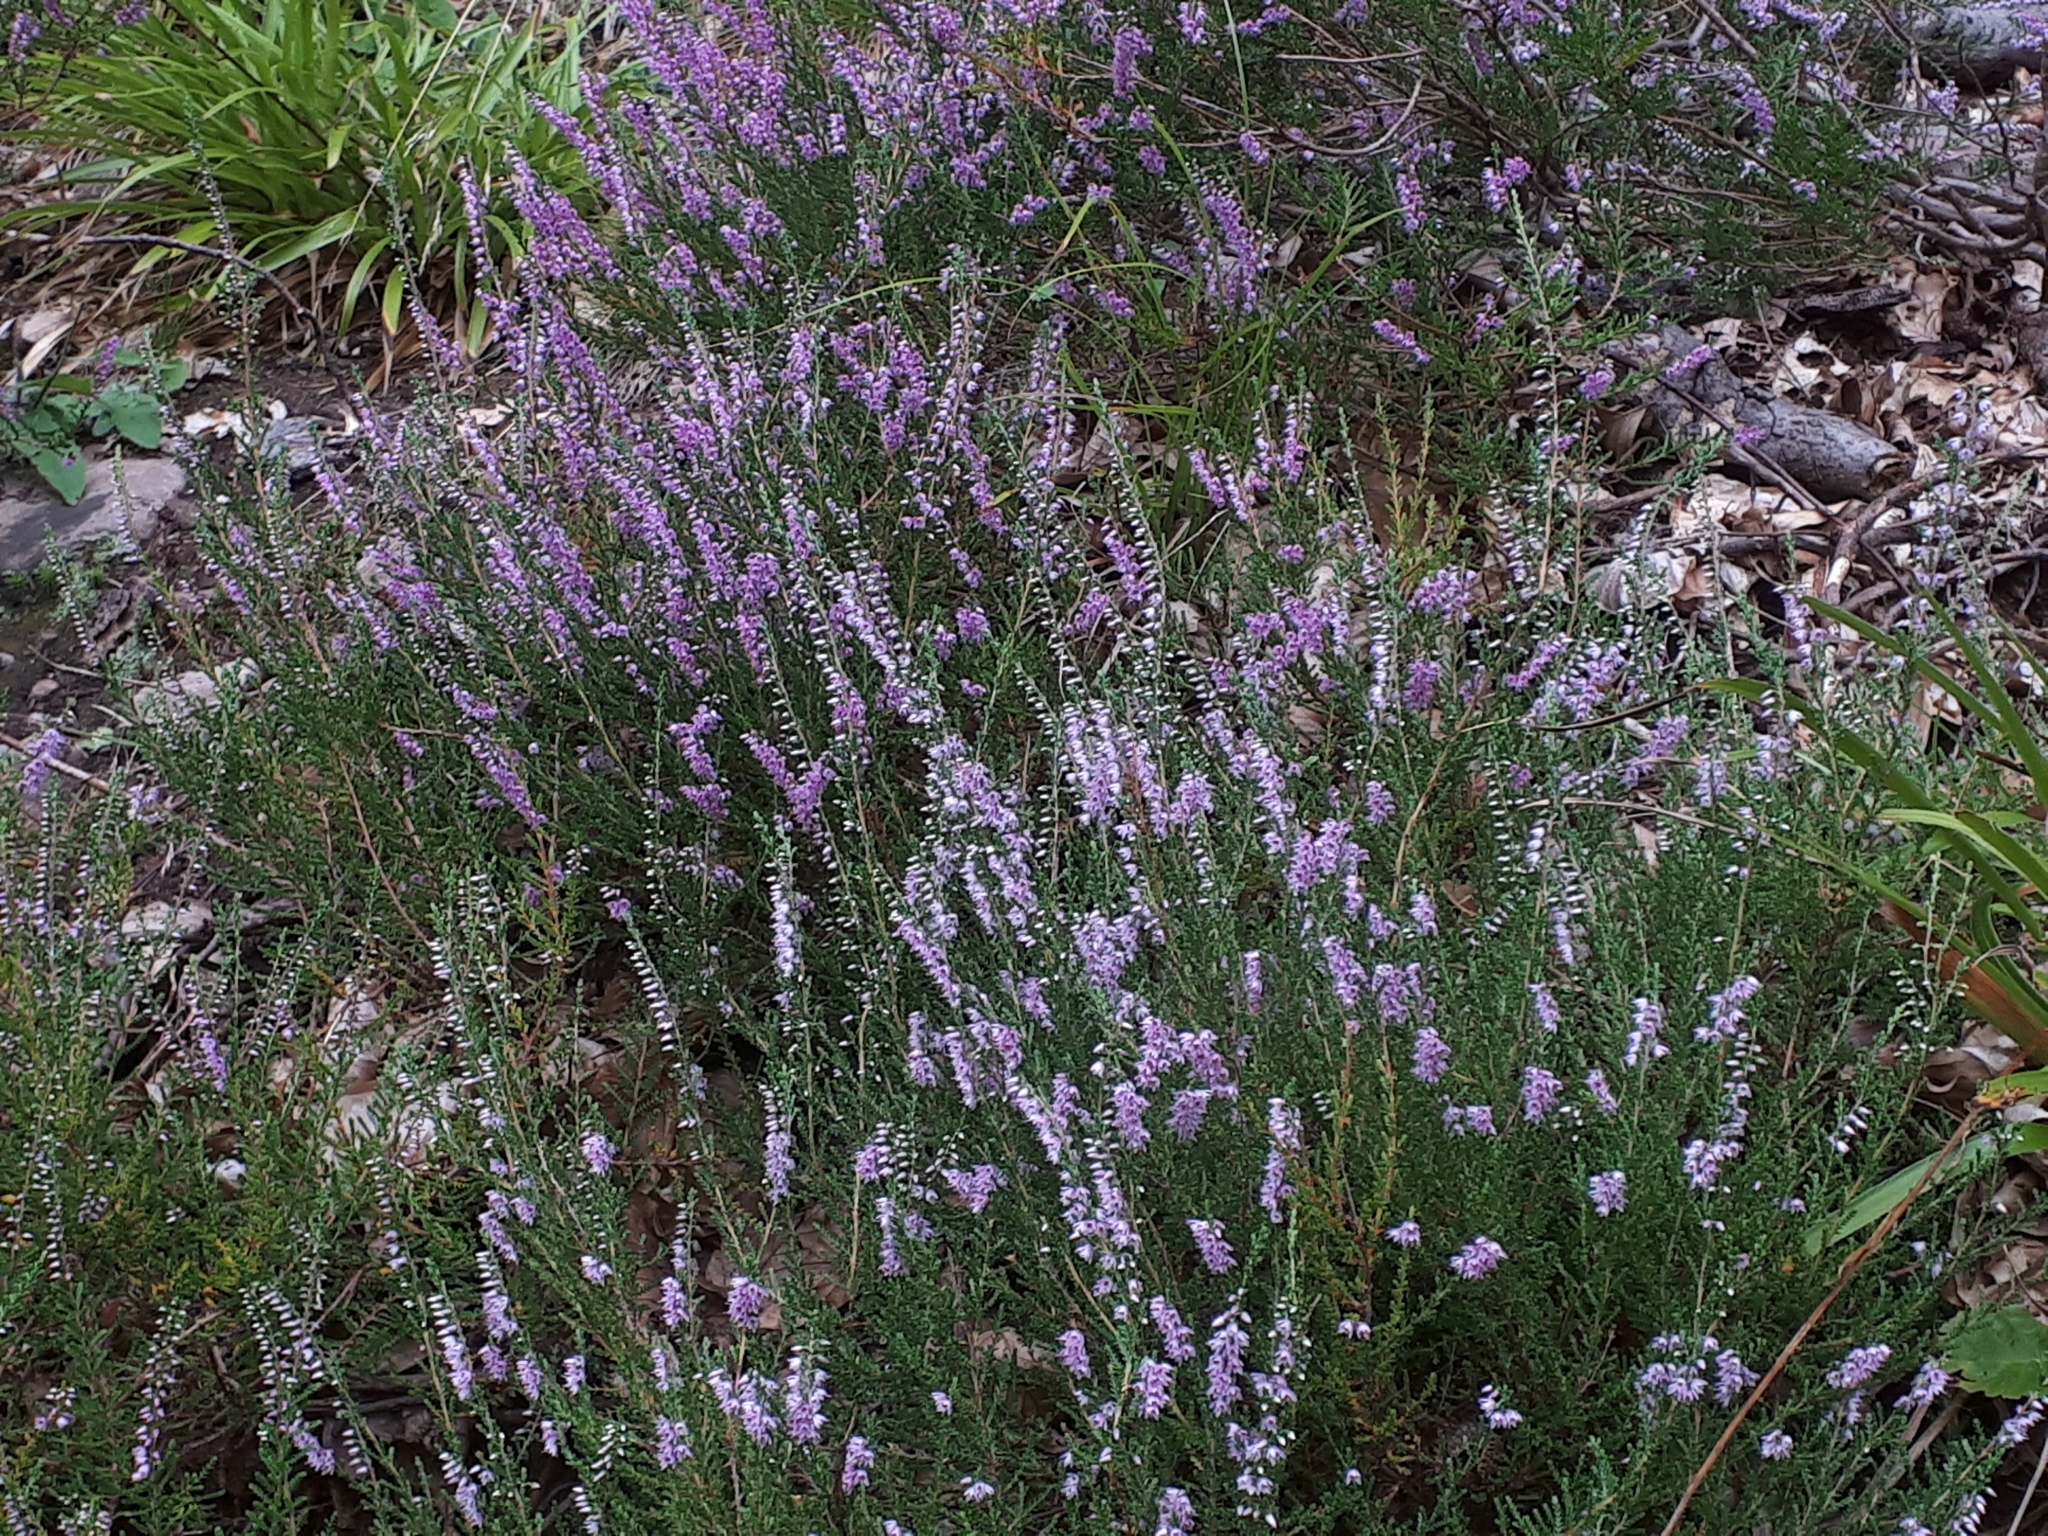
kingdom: Plantae
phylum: Tracheophyta
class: Magnoliopsida
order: Ericales
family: Ericaceae
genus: Calluna
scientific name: Calluna vulgaris
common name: Heather
